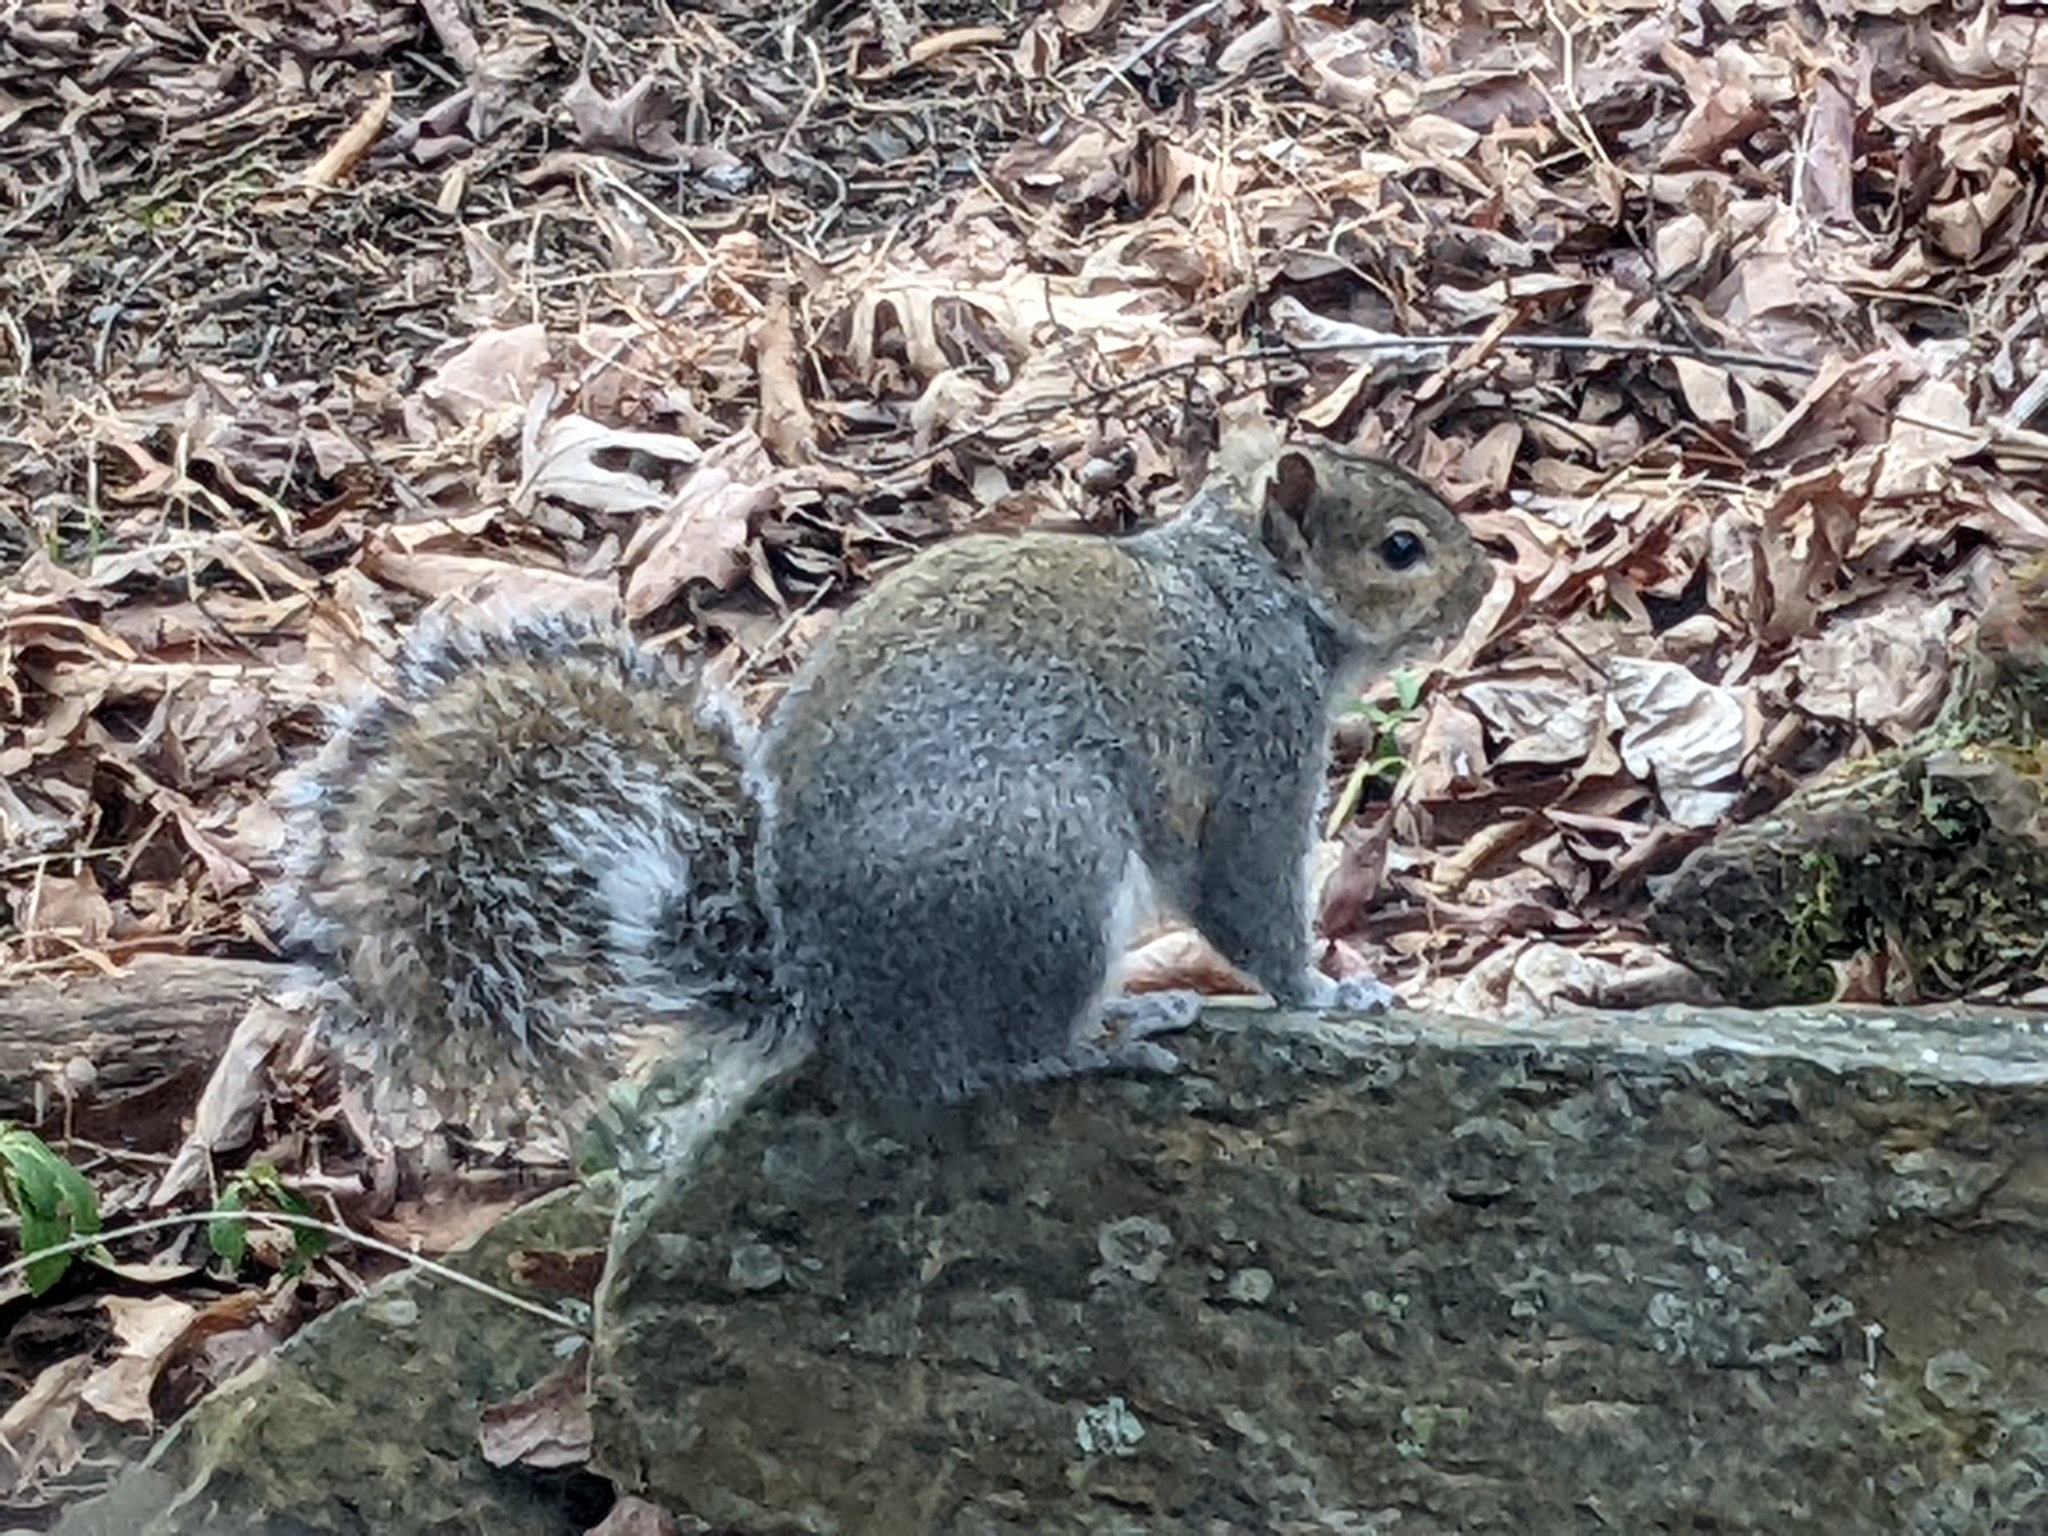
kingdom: Animalia
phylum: Chordata
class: Mammalia
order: Rodentia
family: Sciuridae
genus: Sciurus
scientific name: Sciurus carolinensis
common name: Eastern gray squirrel
